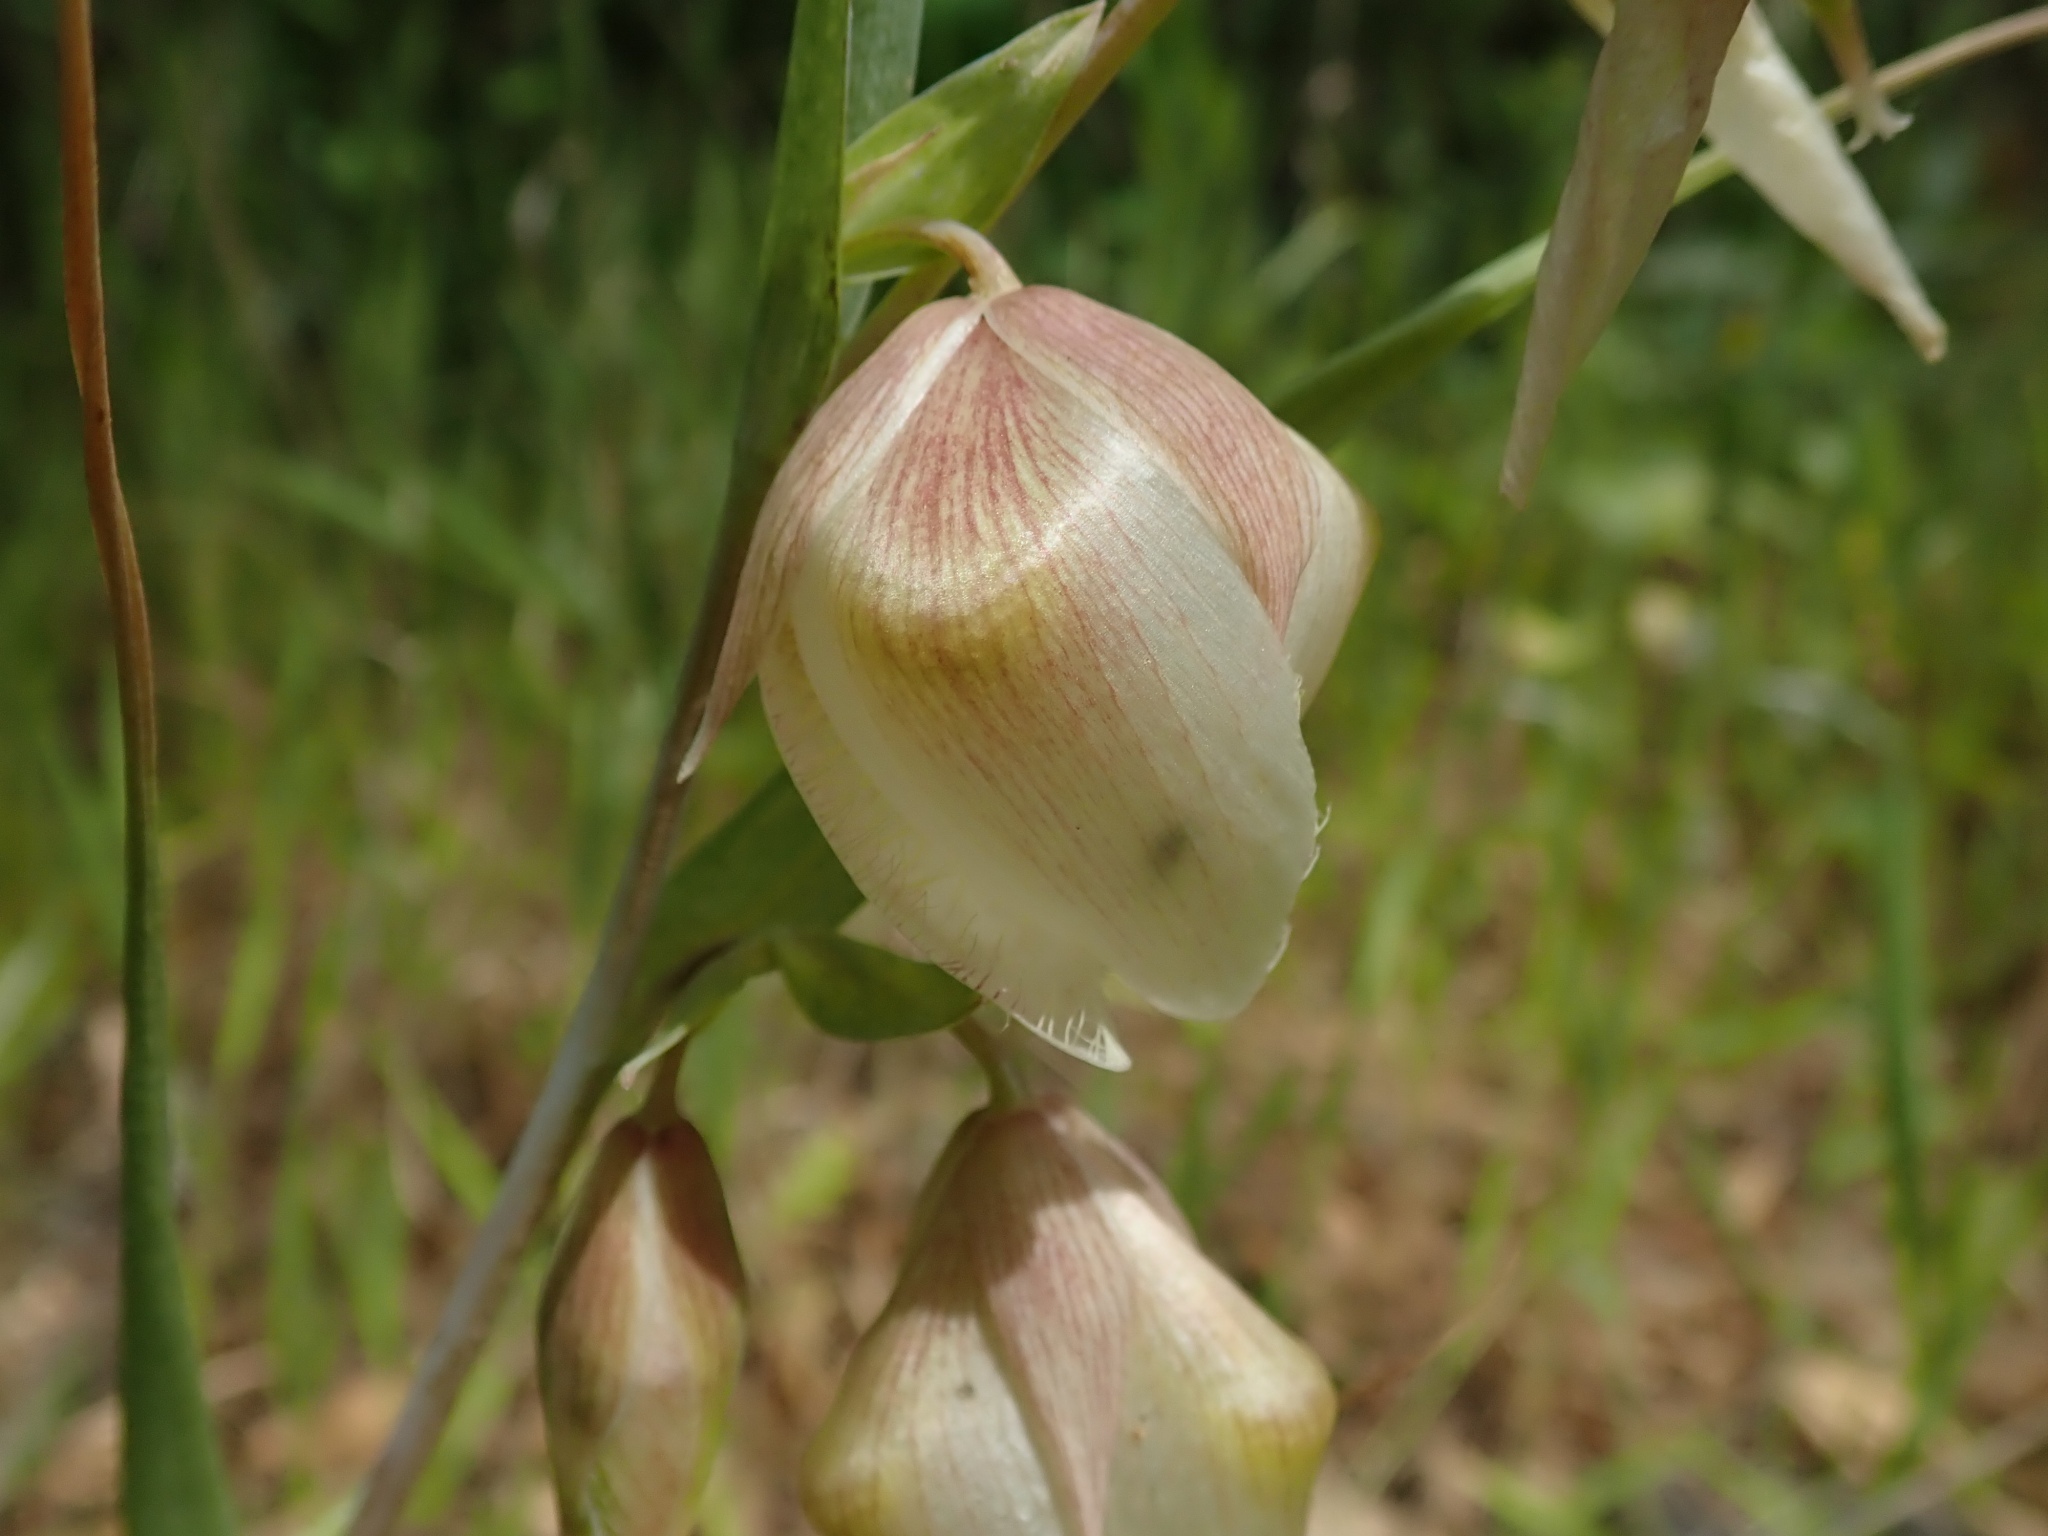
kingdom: Plantae
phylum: Tracheophyta
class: Liliopsida
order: Liliales
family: Liliaceae
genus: Calochortus
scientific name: Calochortus albus
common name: Fairy-lantern
